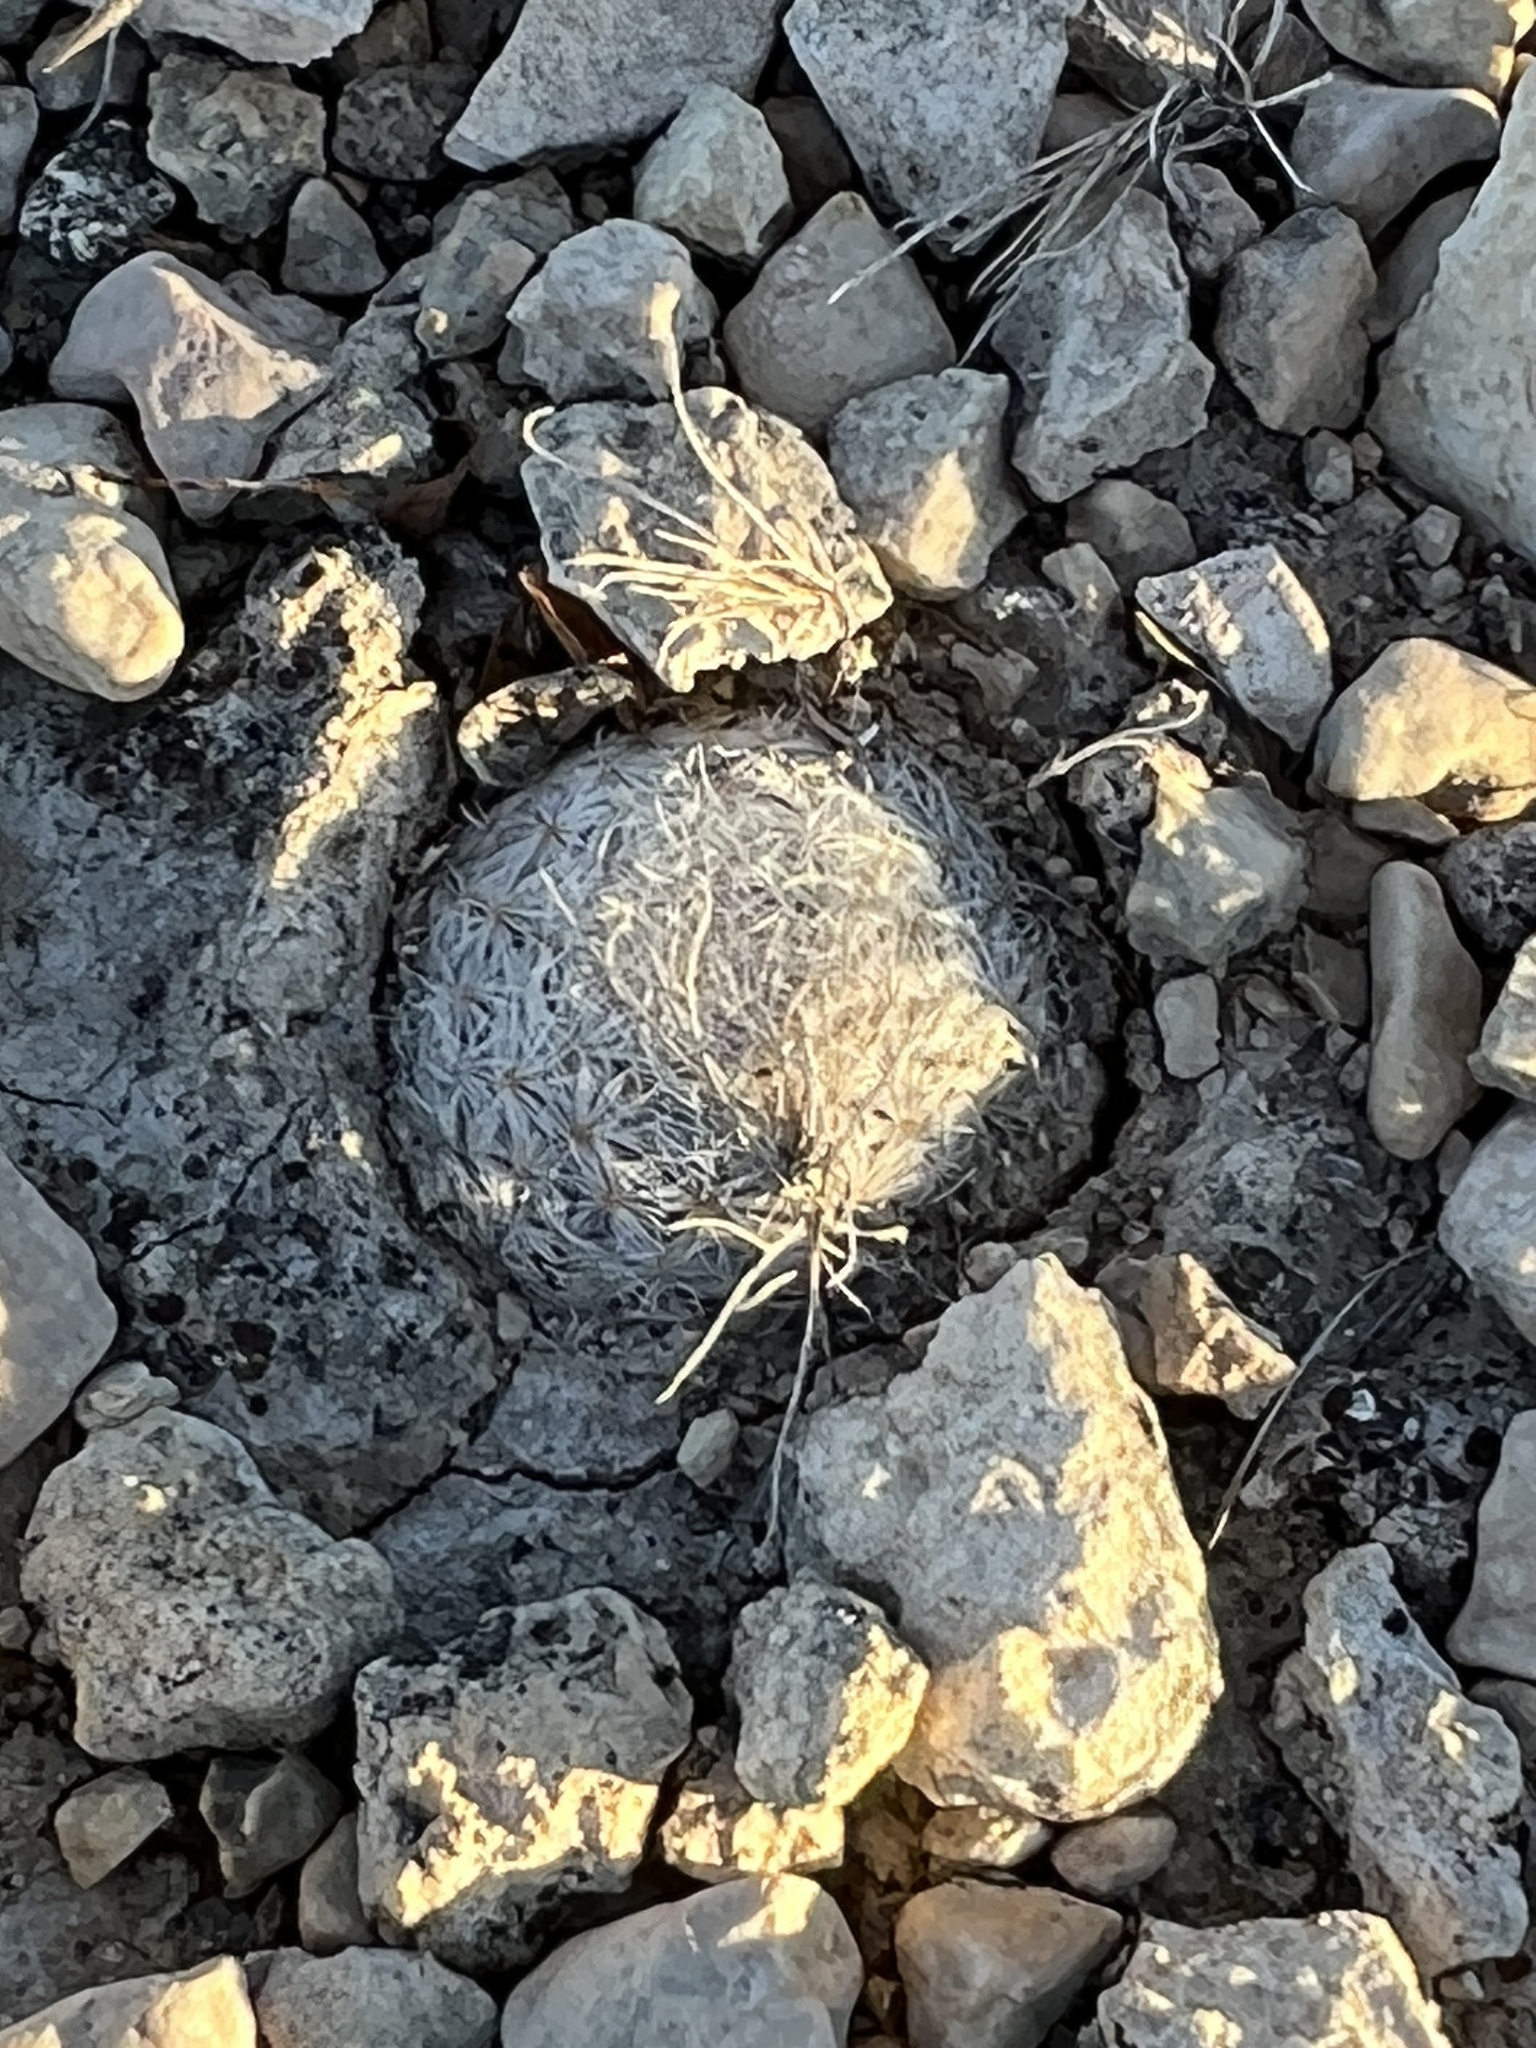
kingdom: Plantae
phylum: Tracheophyta
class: Magnoliopsida
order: Caryophyllales
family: Cactaceae
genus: Mammillaria
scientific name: Mammillaria lasiacantha
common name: Lace-spine nipple cactus
